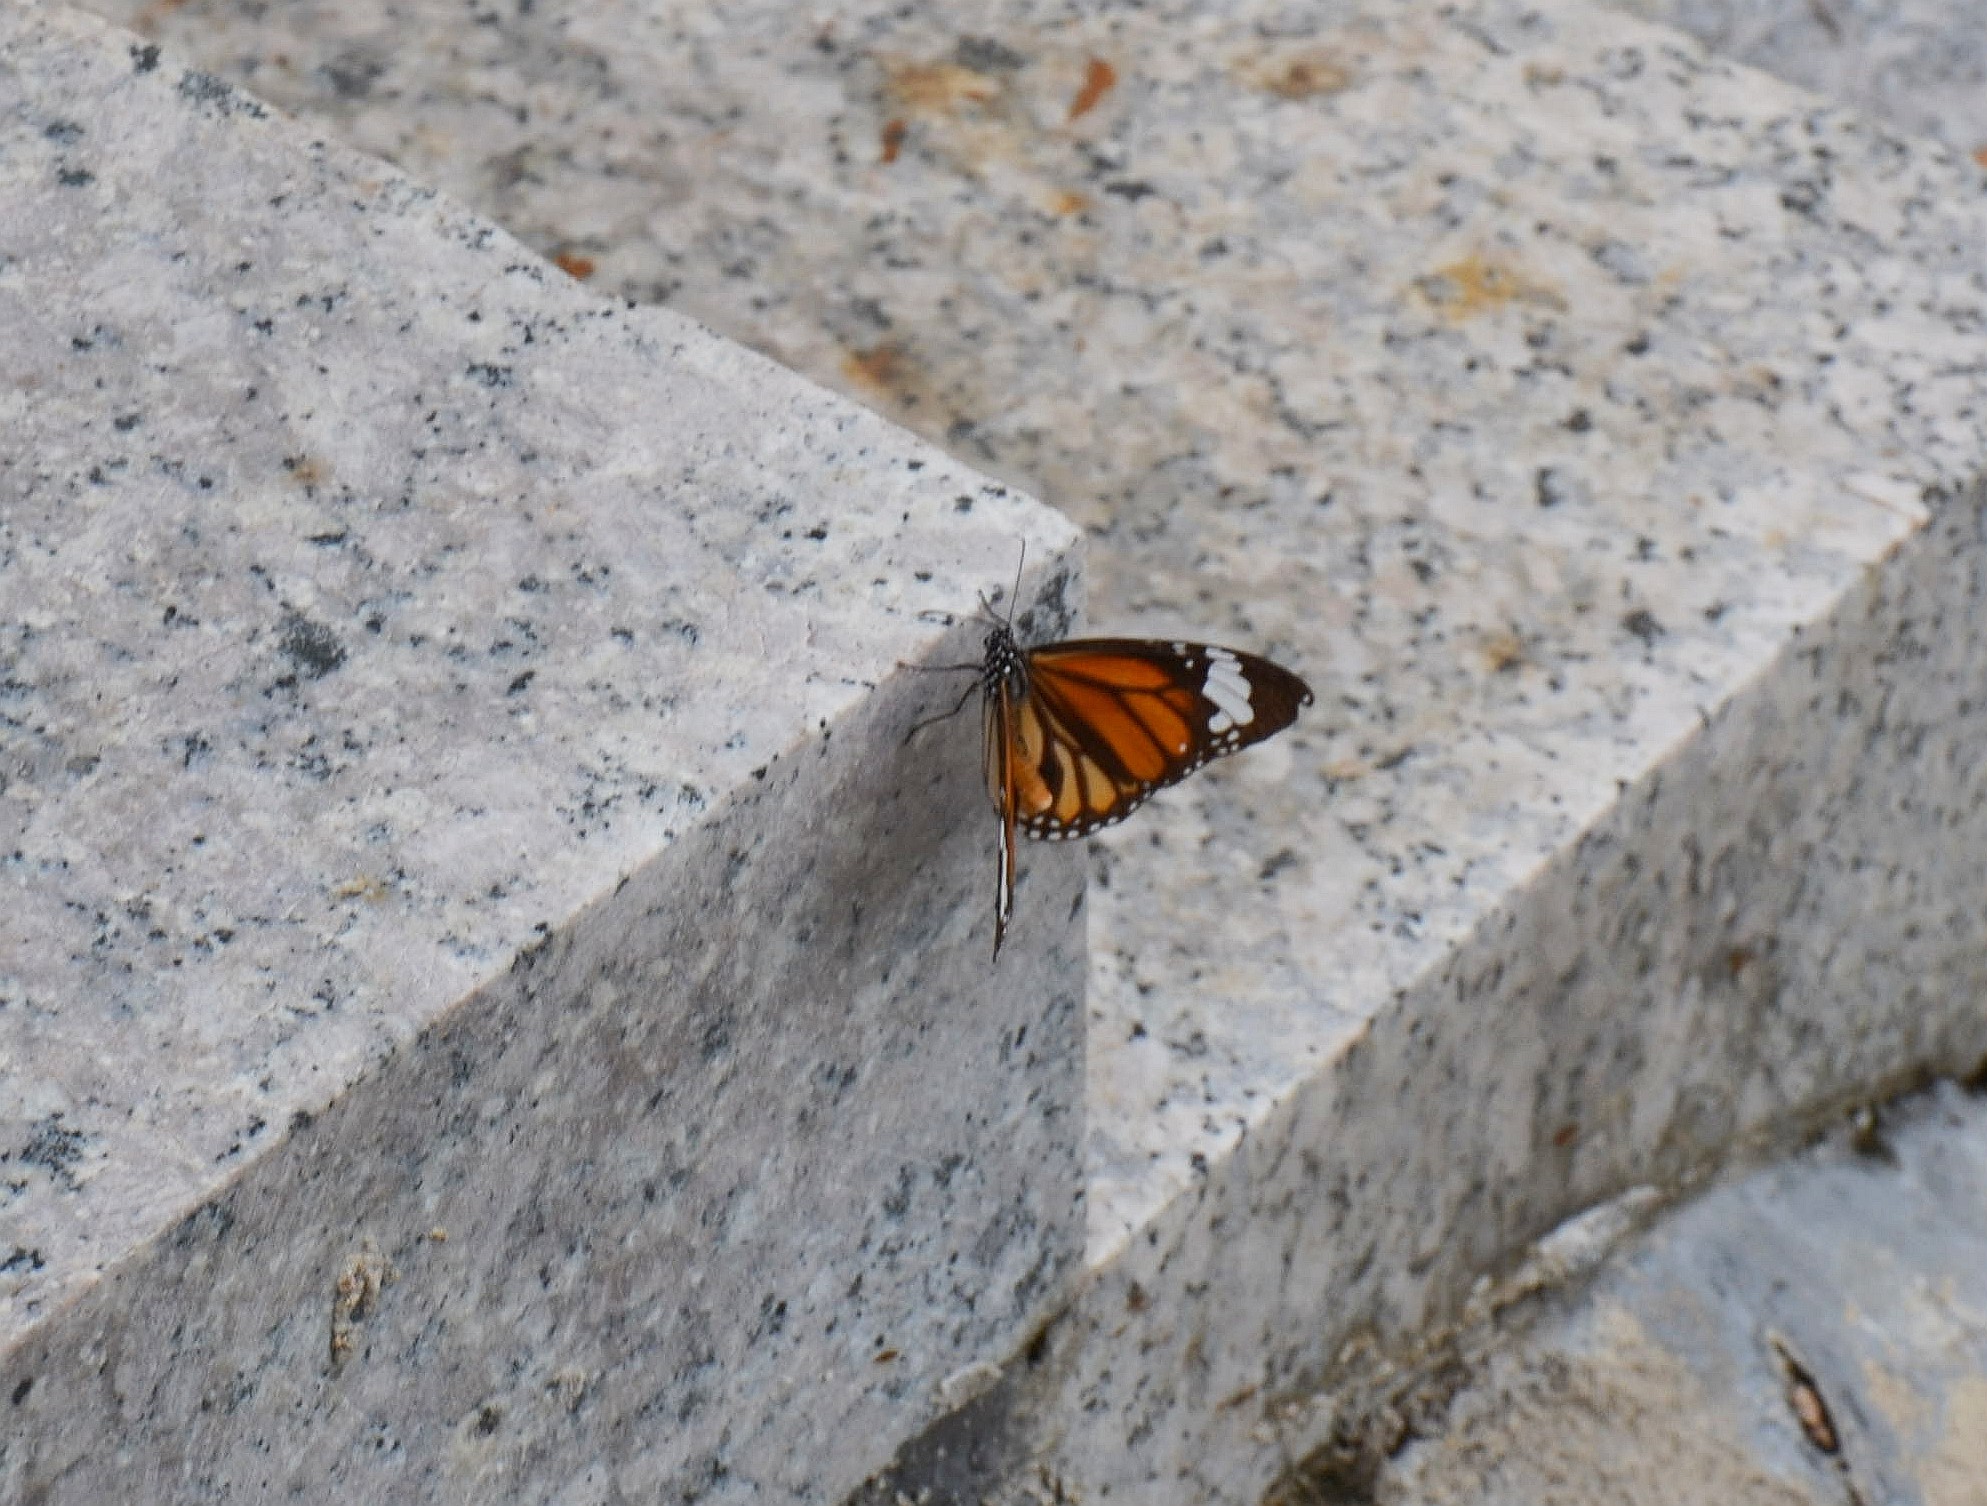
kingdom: Animalia
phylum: Arthropoda
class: Insecta
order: Lepidoptera
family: Nymphalidae
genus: Danaus
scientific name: Danaus genutia
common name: Common tiger butterfly
